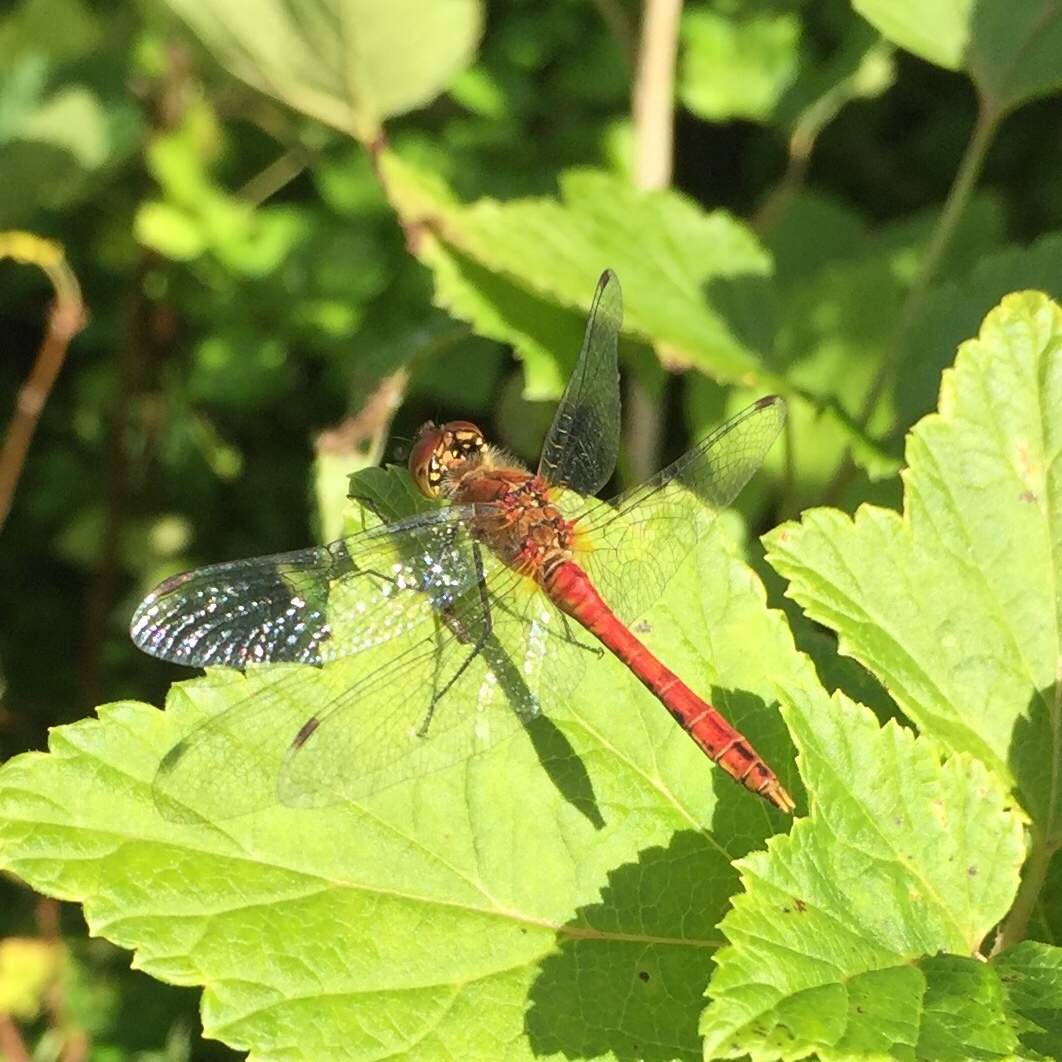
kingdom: Animalia
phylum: Arthropoda
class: Insecta
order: Odonata
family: Libellulidae
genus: Sympetrum
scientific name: Sympetrum sanguineum
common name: Ruddy darter
